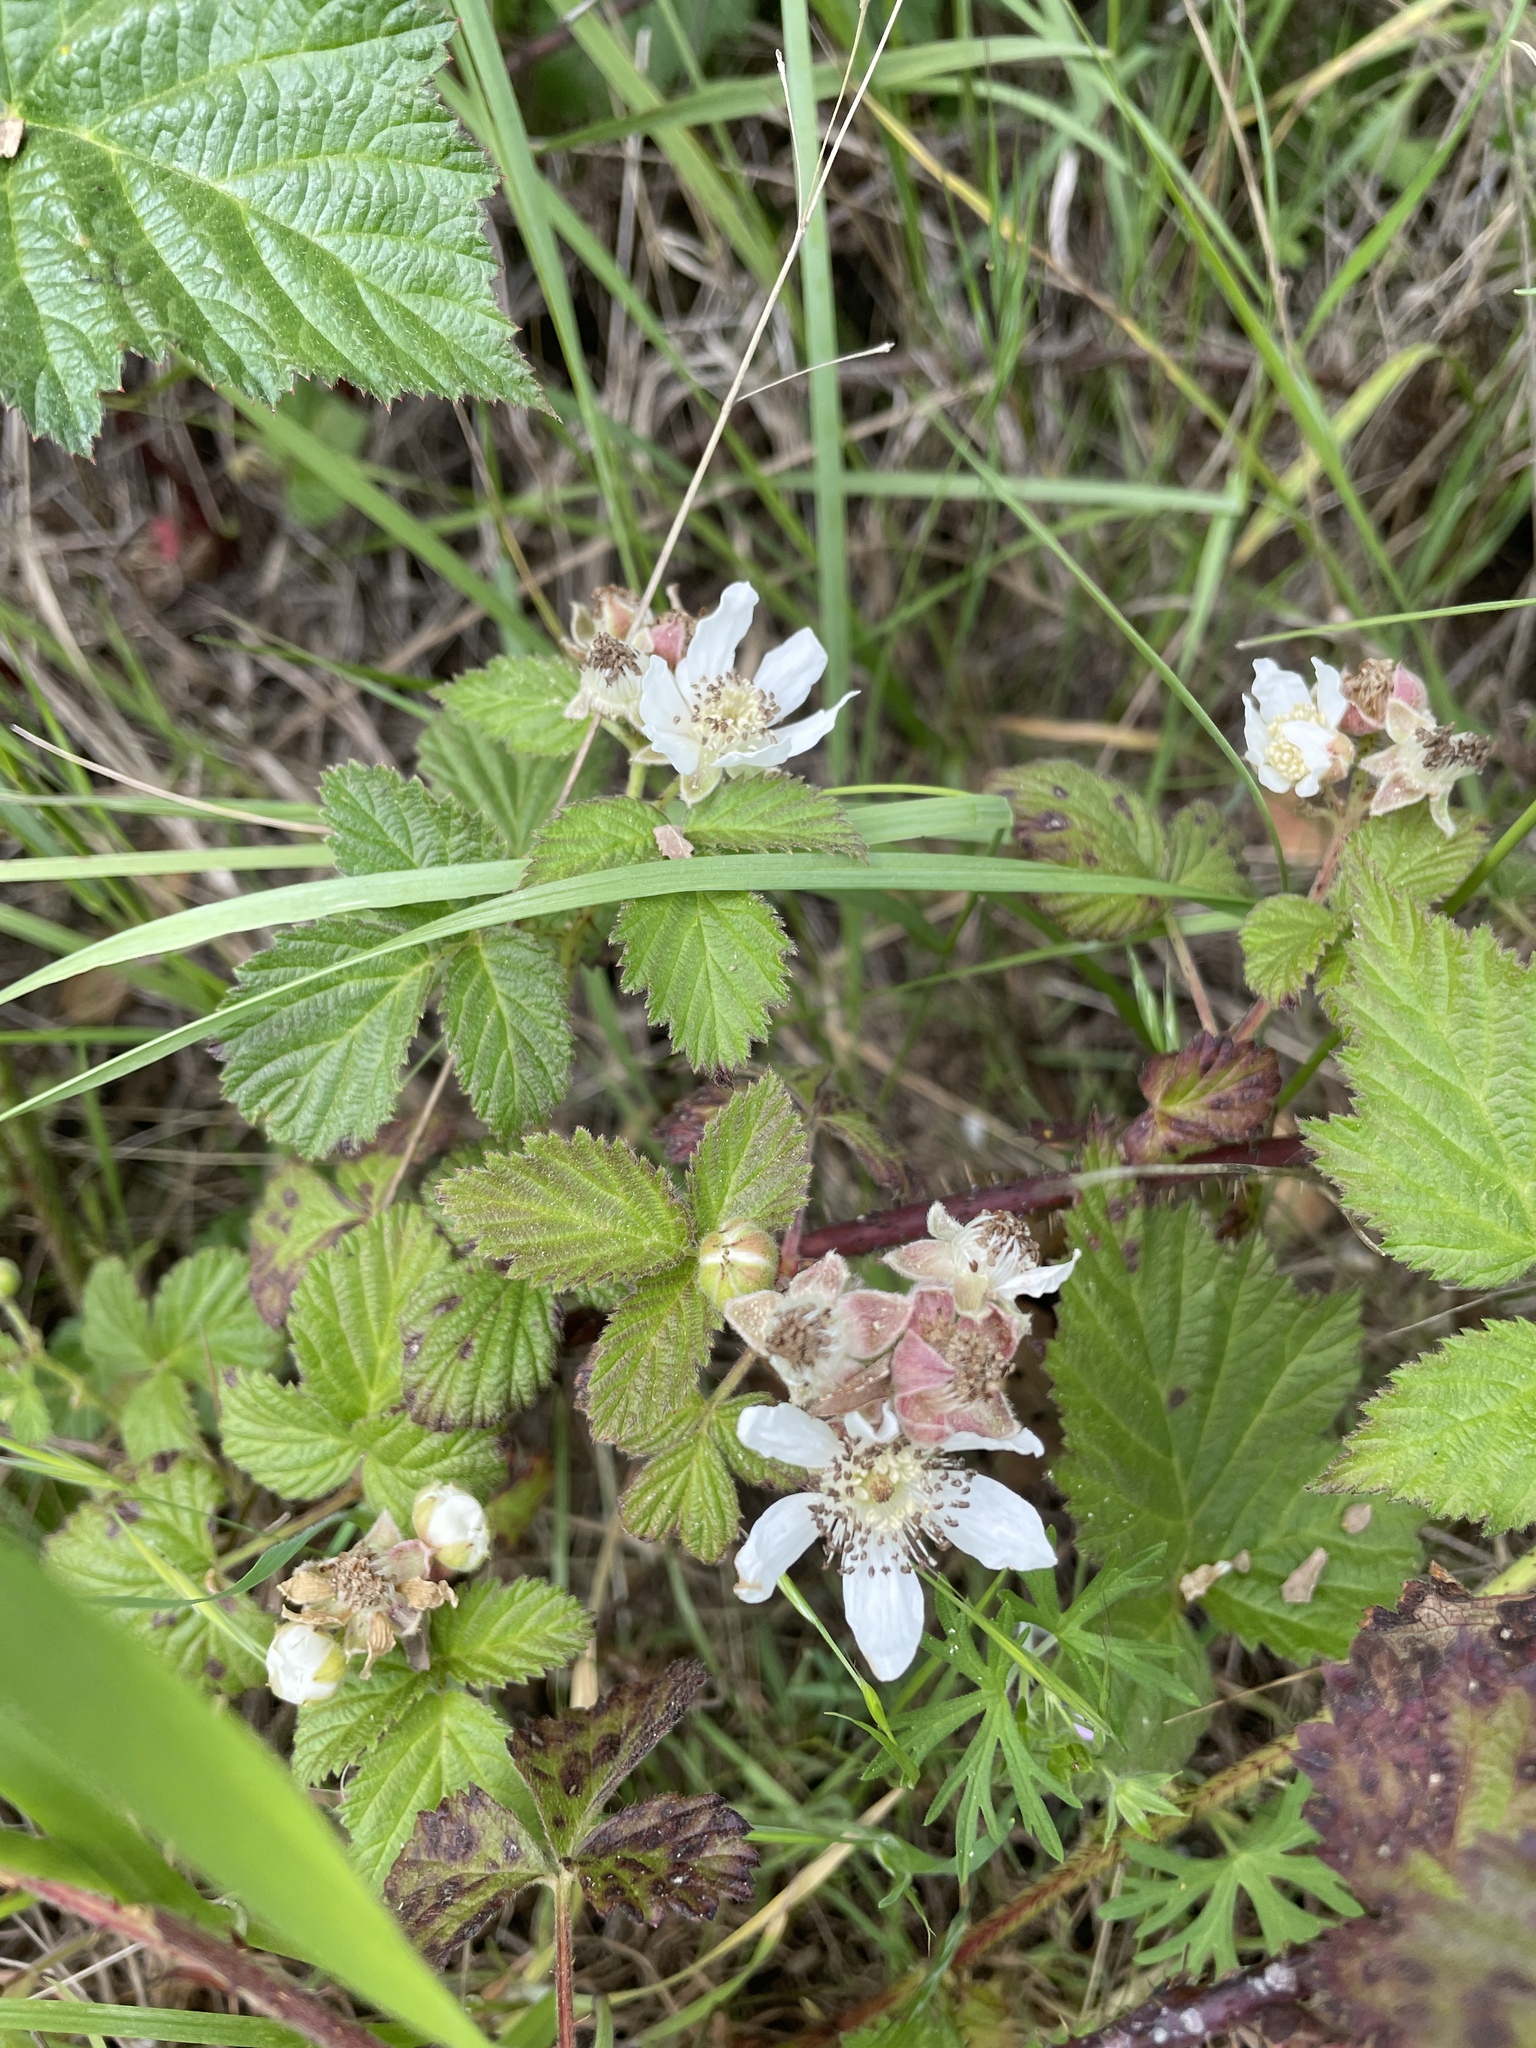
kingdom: Plantae
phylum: Tracheophyta
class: Magnoliopsida
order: Rosales
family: Rosaceae
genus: Rubus
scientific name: Rubus ursinus
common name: Pacific blackberry
